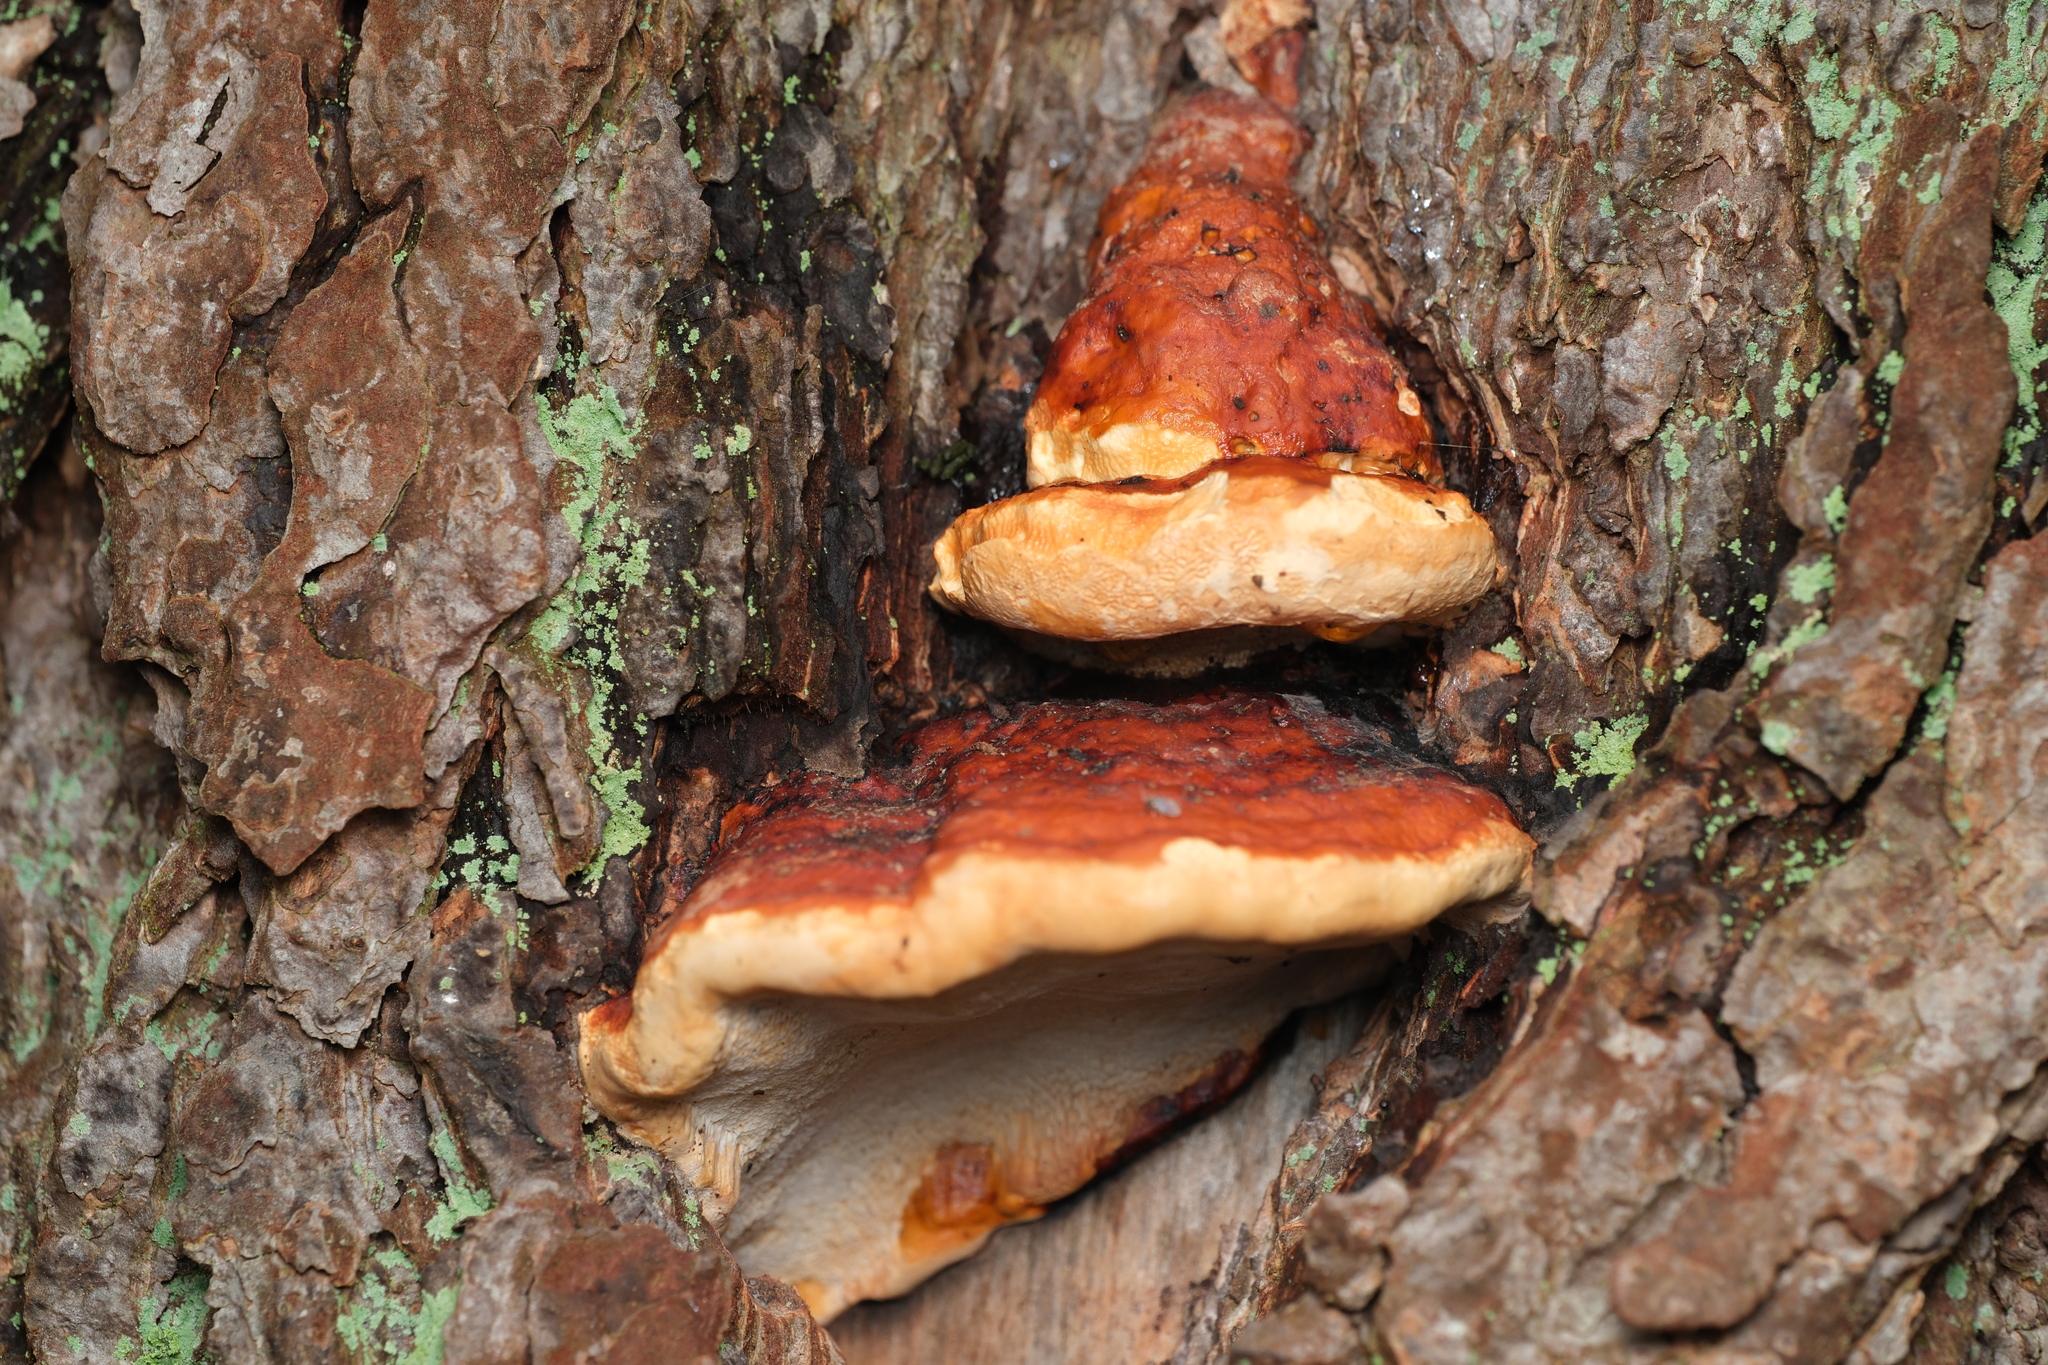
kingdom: Fungi
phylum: Basidiomycota
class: Agaricomycetes
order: Polyporales
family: Fomitopsidaceae
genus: Fomitopsis
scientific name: Fomitopsis pinicola
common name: Red-belted bracket
